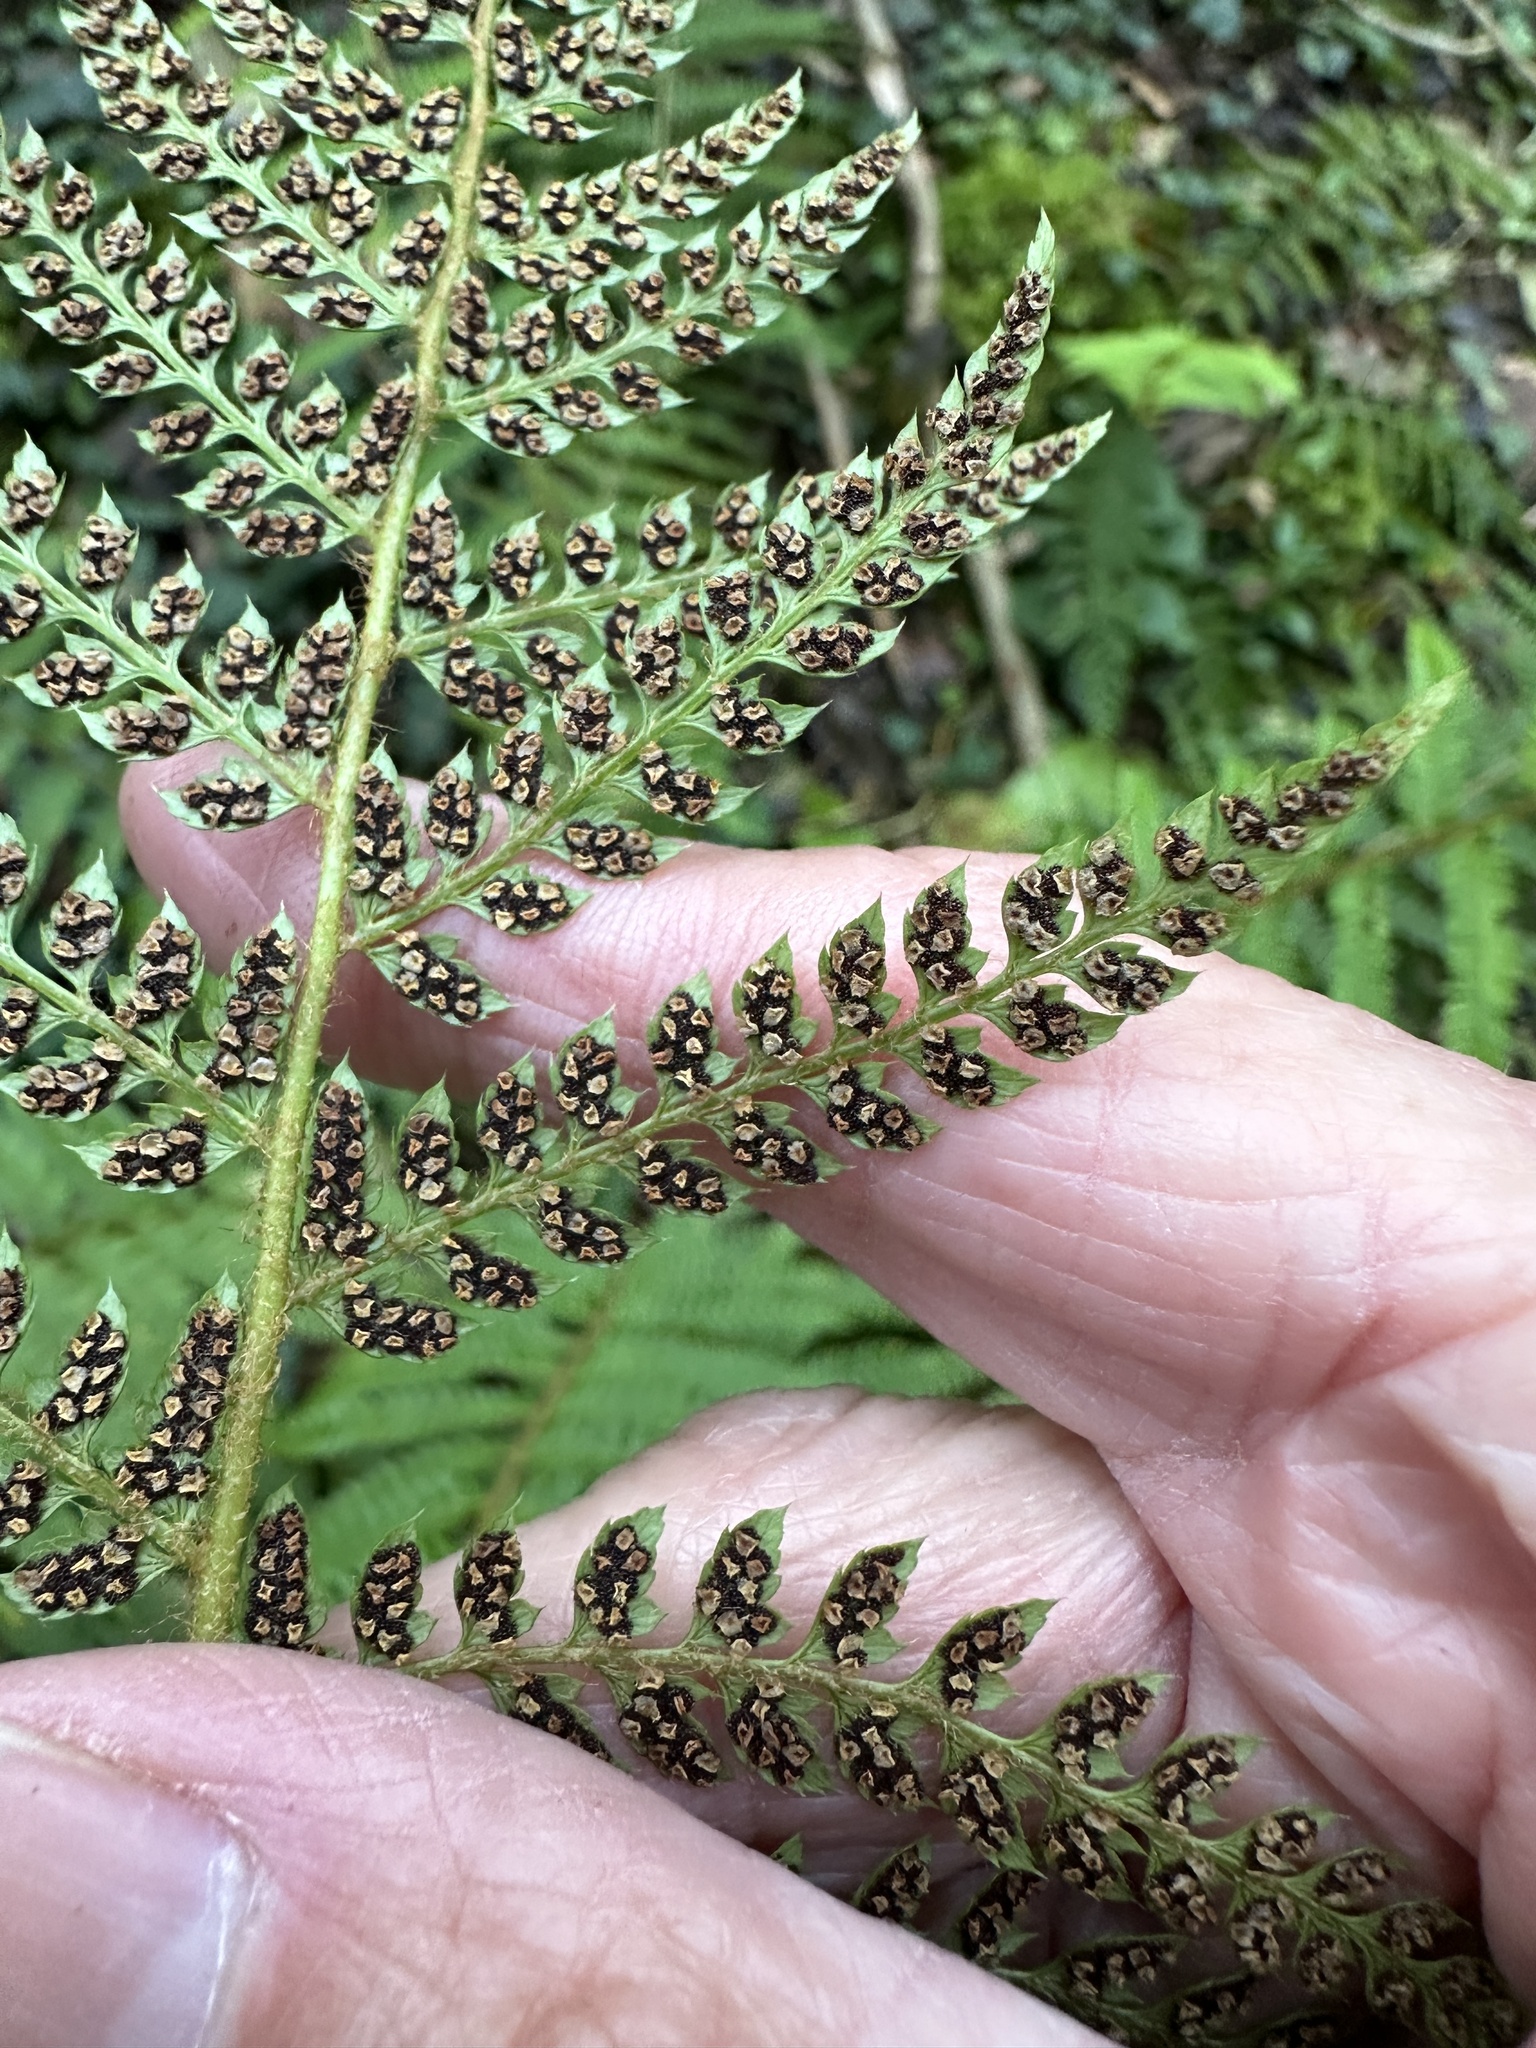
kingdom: Plantae
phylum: Tracheophyta
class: Polypodiopsida
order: Polypodiales
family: Dryopteridaceae
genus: Polystichum
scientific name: Polystichum setiferum
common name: Soft shield-fern
